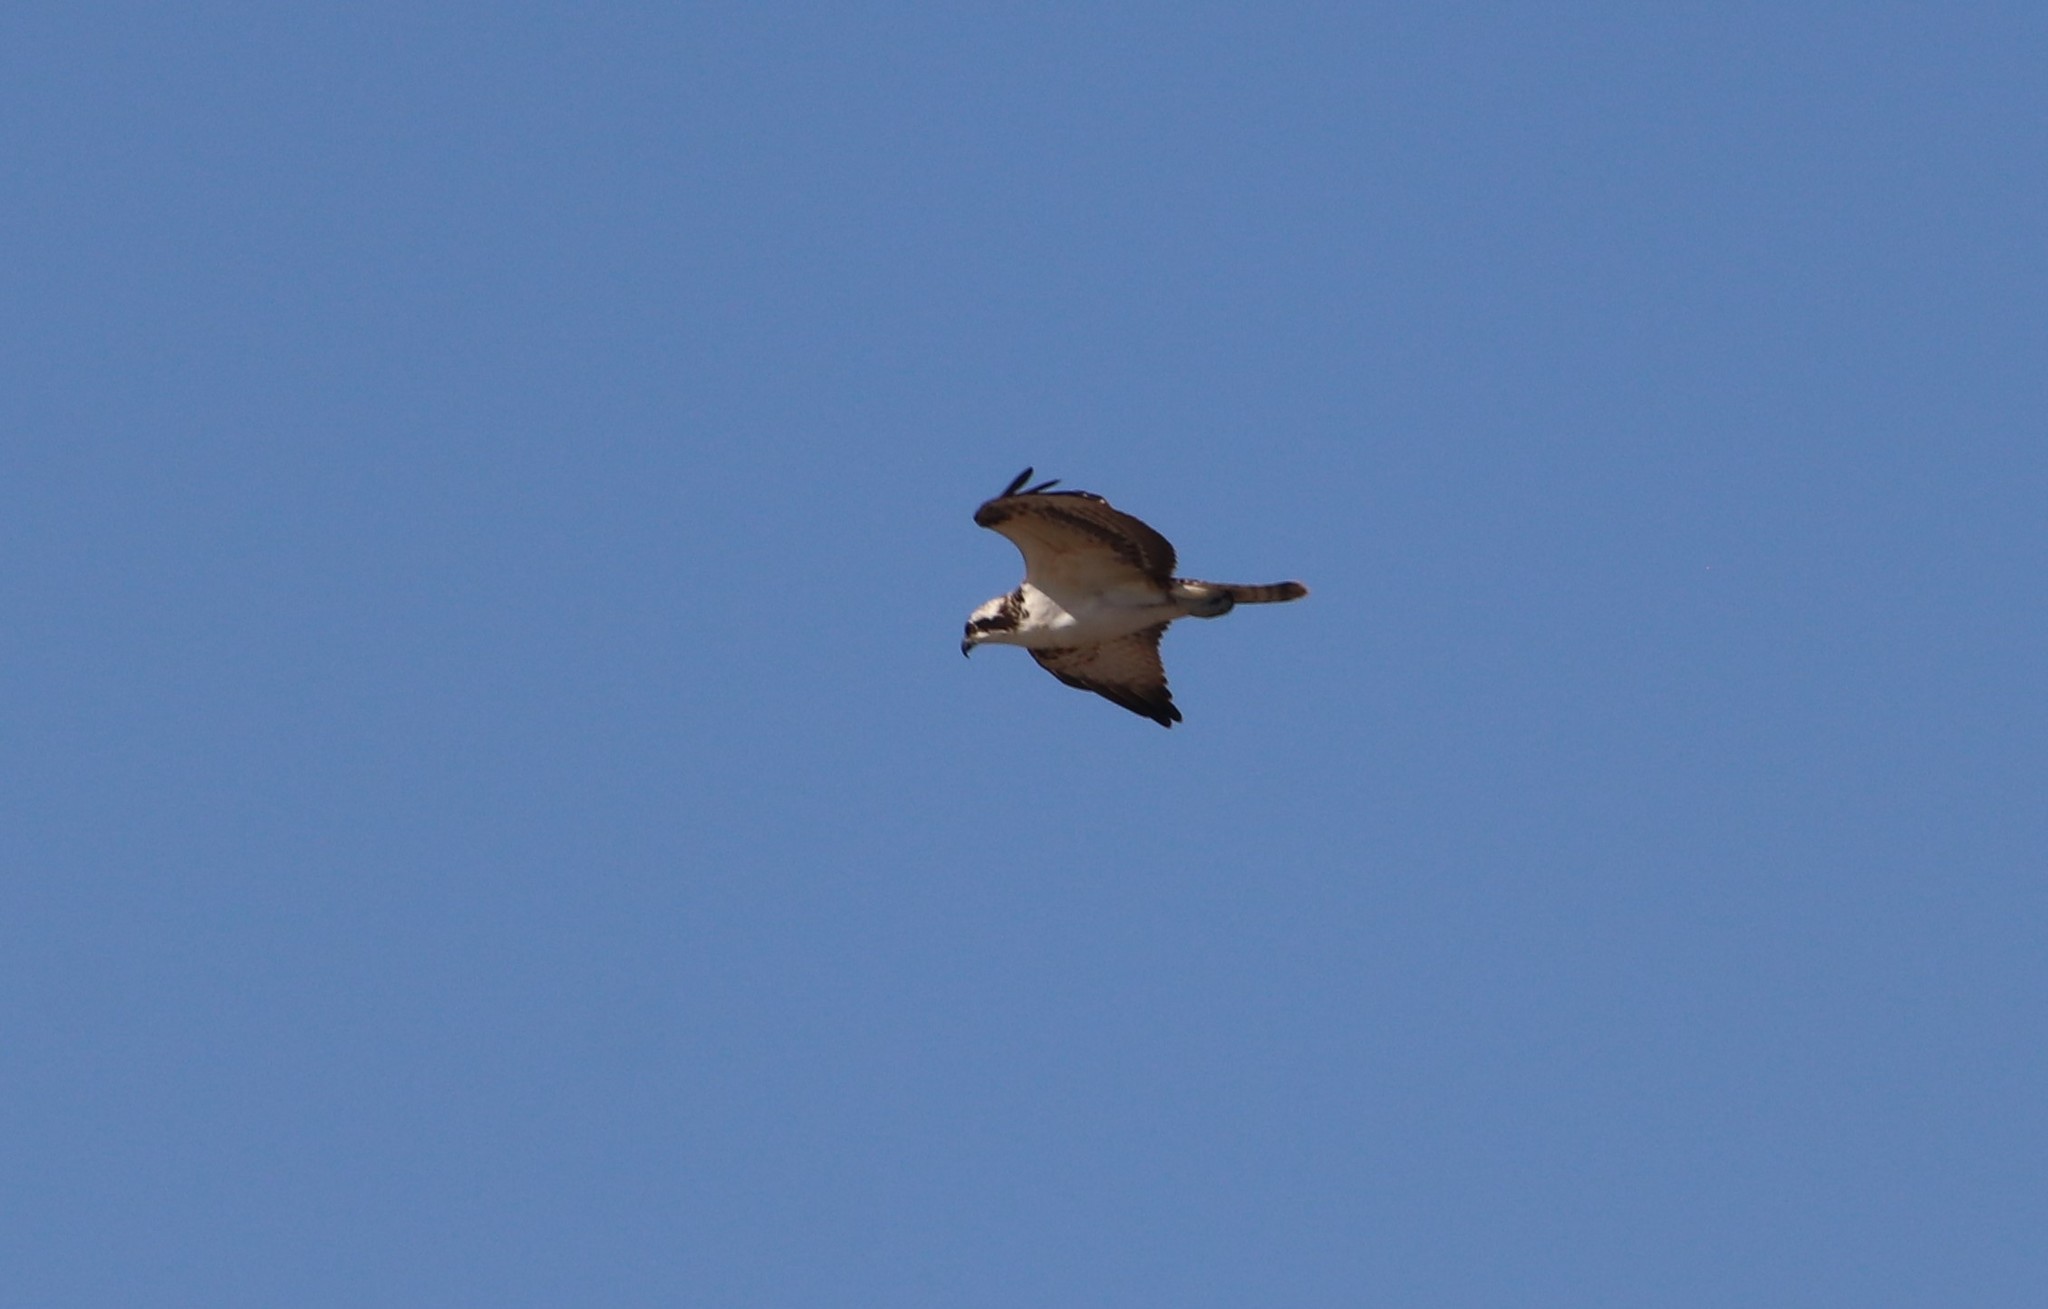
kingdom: Animalia
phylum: Chordata
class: Aves
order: Accipitriformes
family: Pandionidae
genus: Pandion
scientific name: Pandion haliaetus
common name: Osprey
